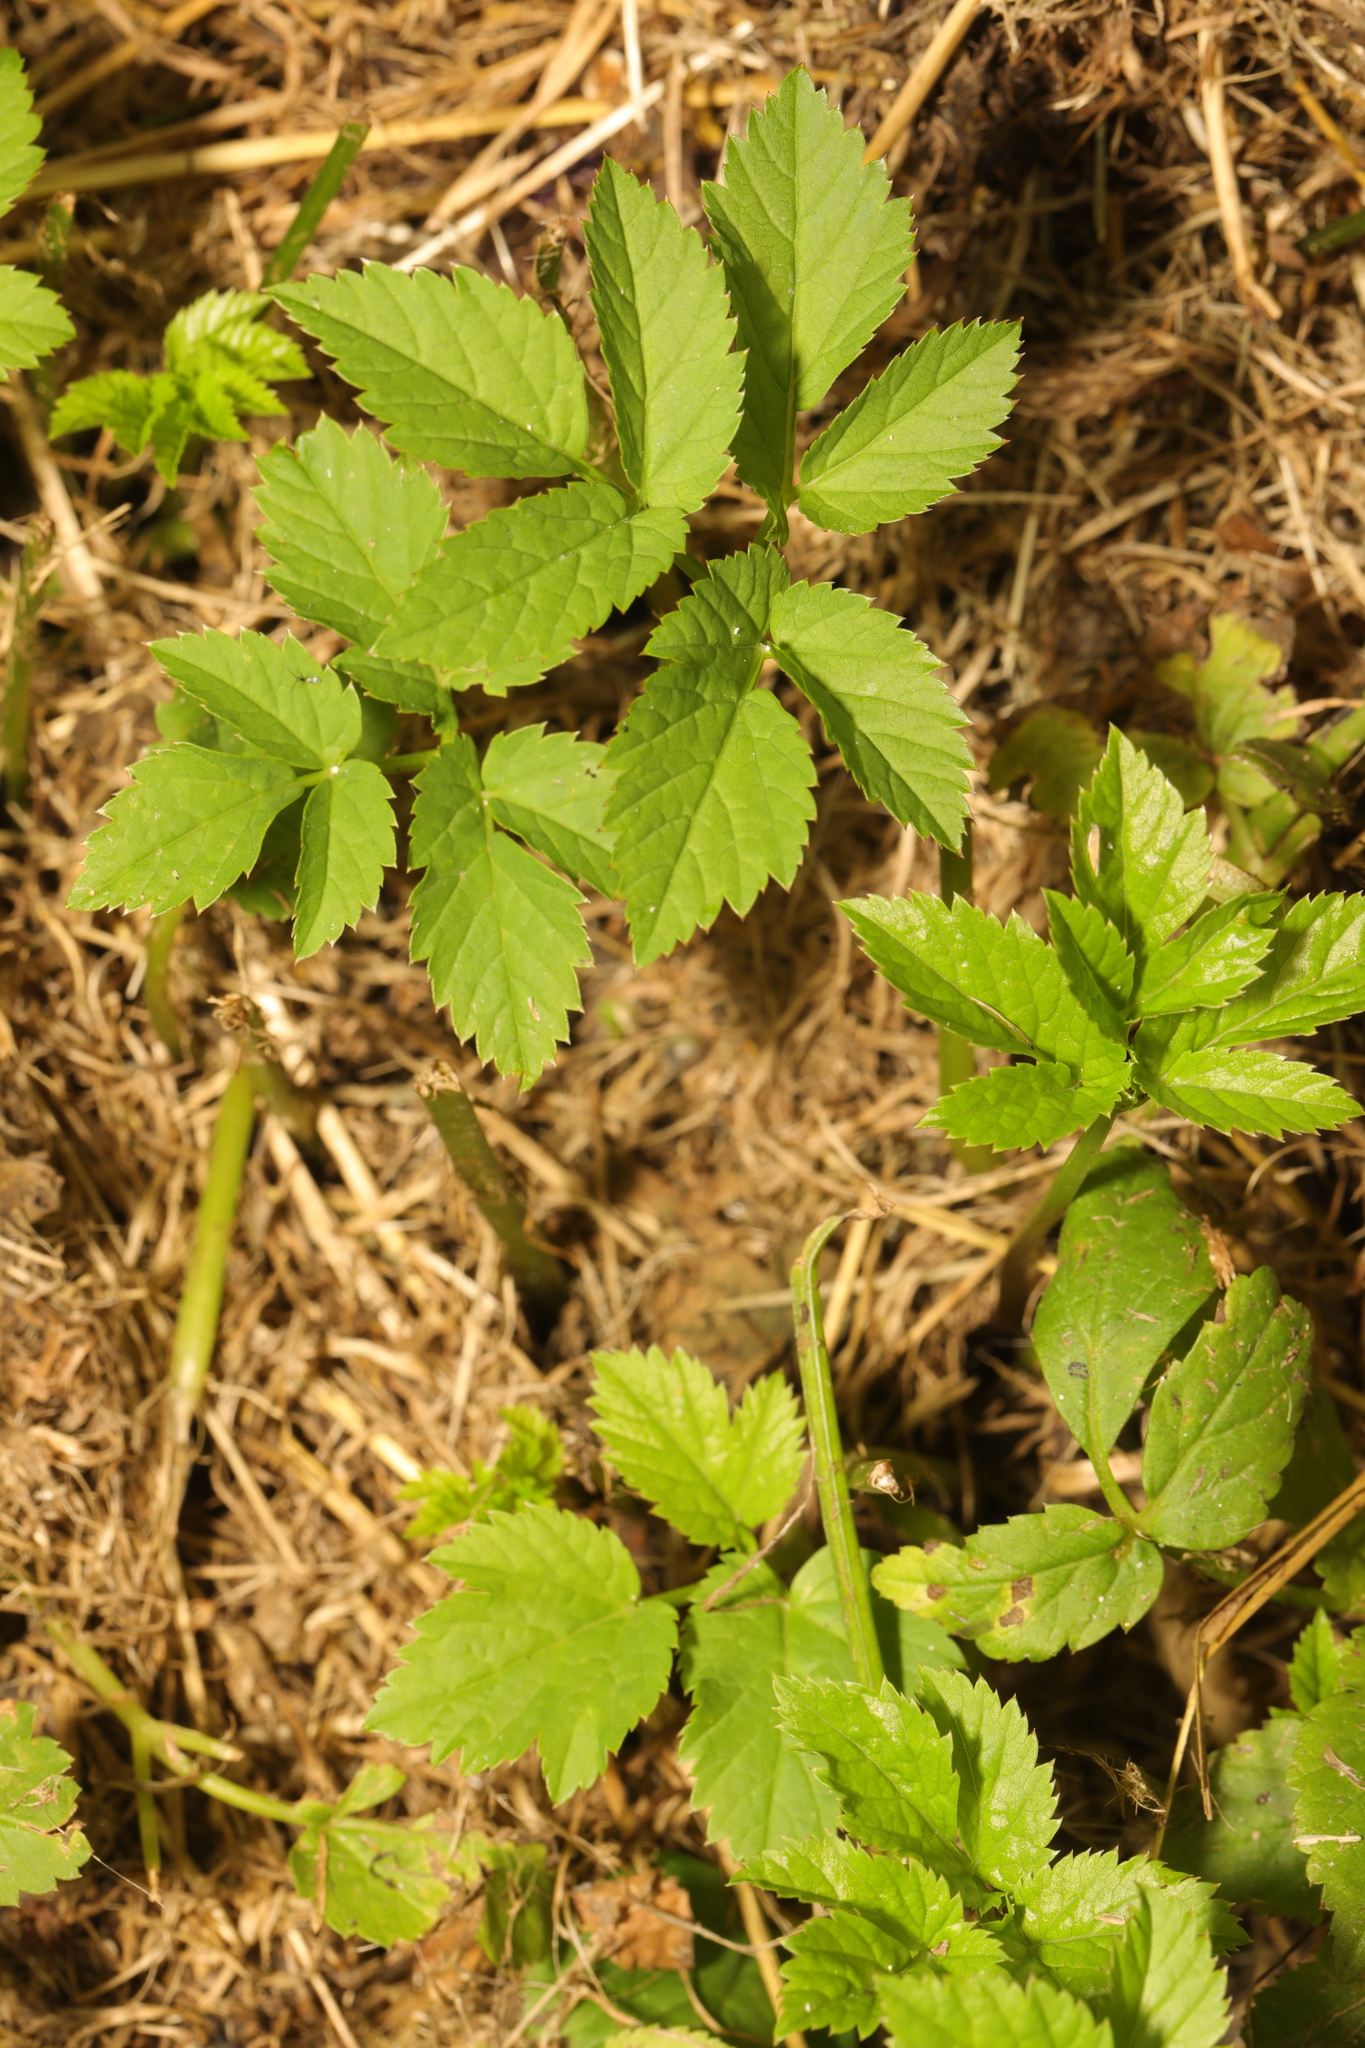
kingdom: Plantae
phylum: Tracheophyta
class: Magnoliopsida
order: Apiales
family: Apiaceae
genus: Aegopodium
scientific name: Aegopodium podagraria
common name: Ground-elder
